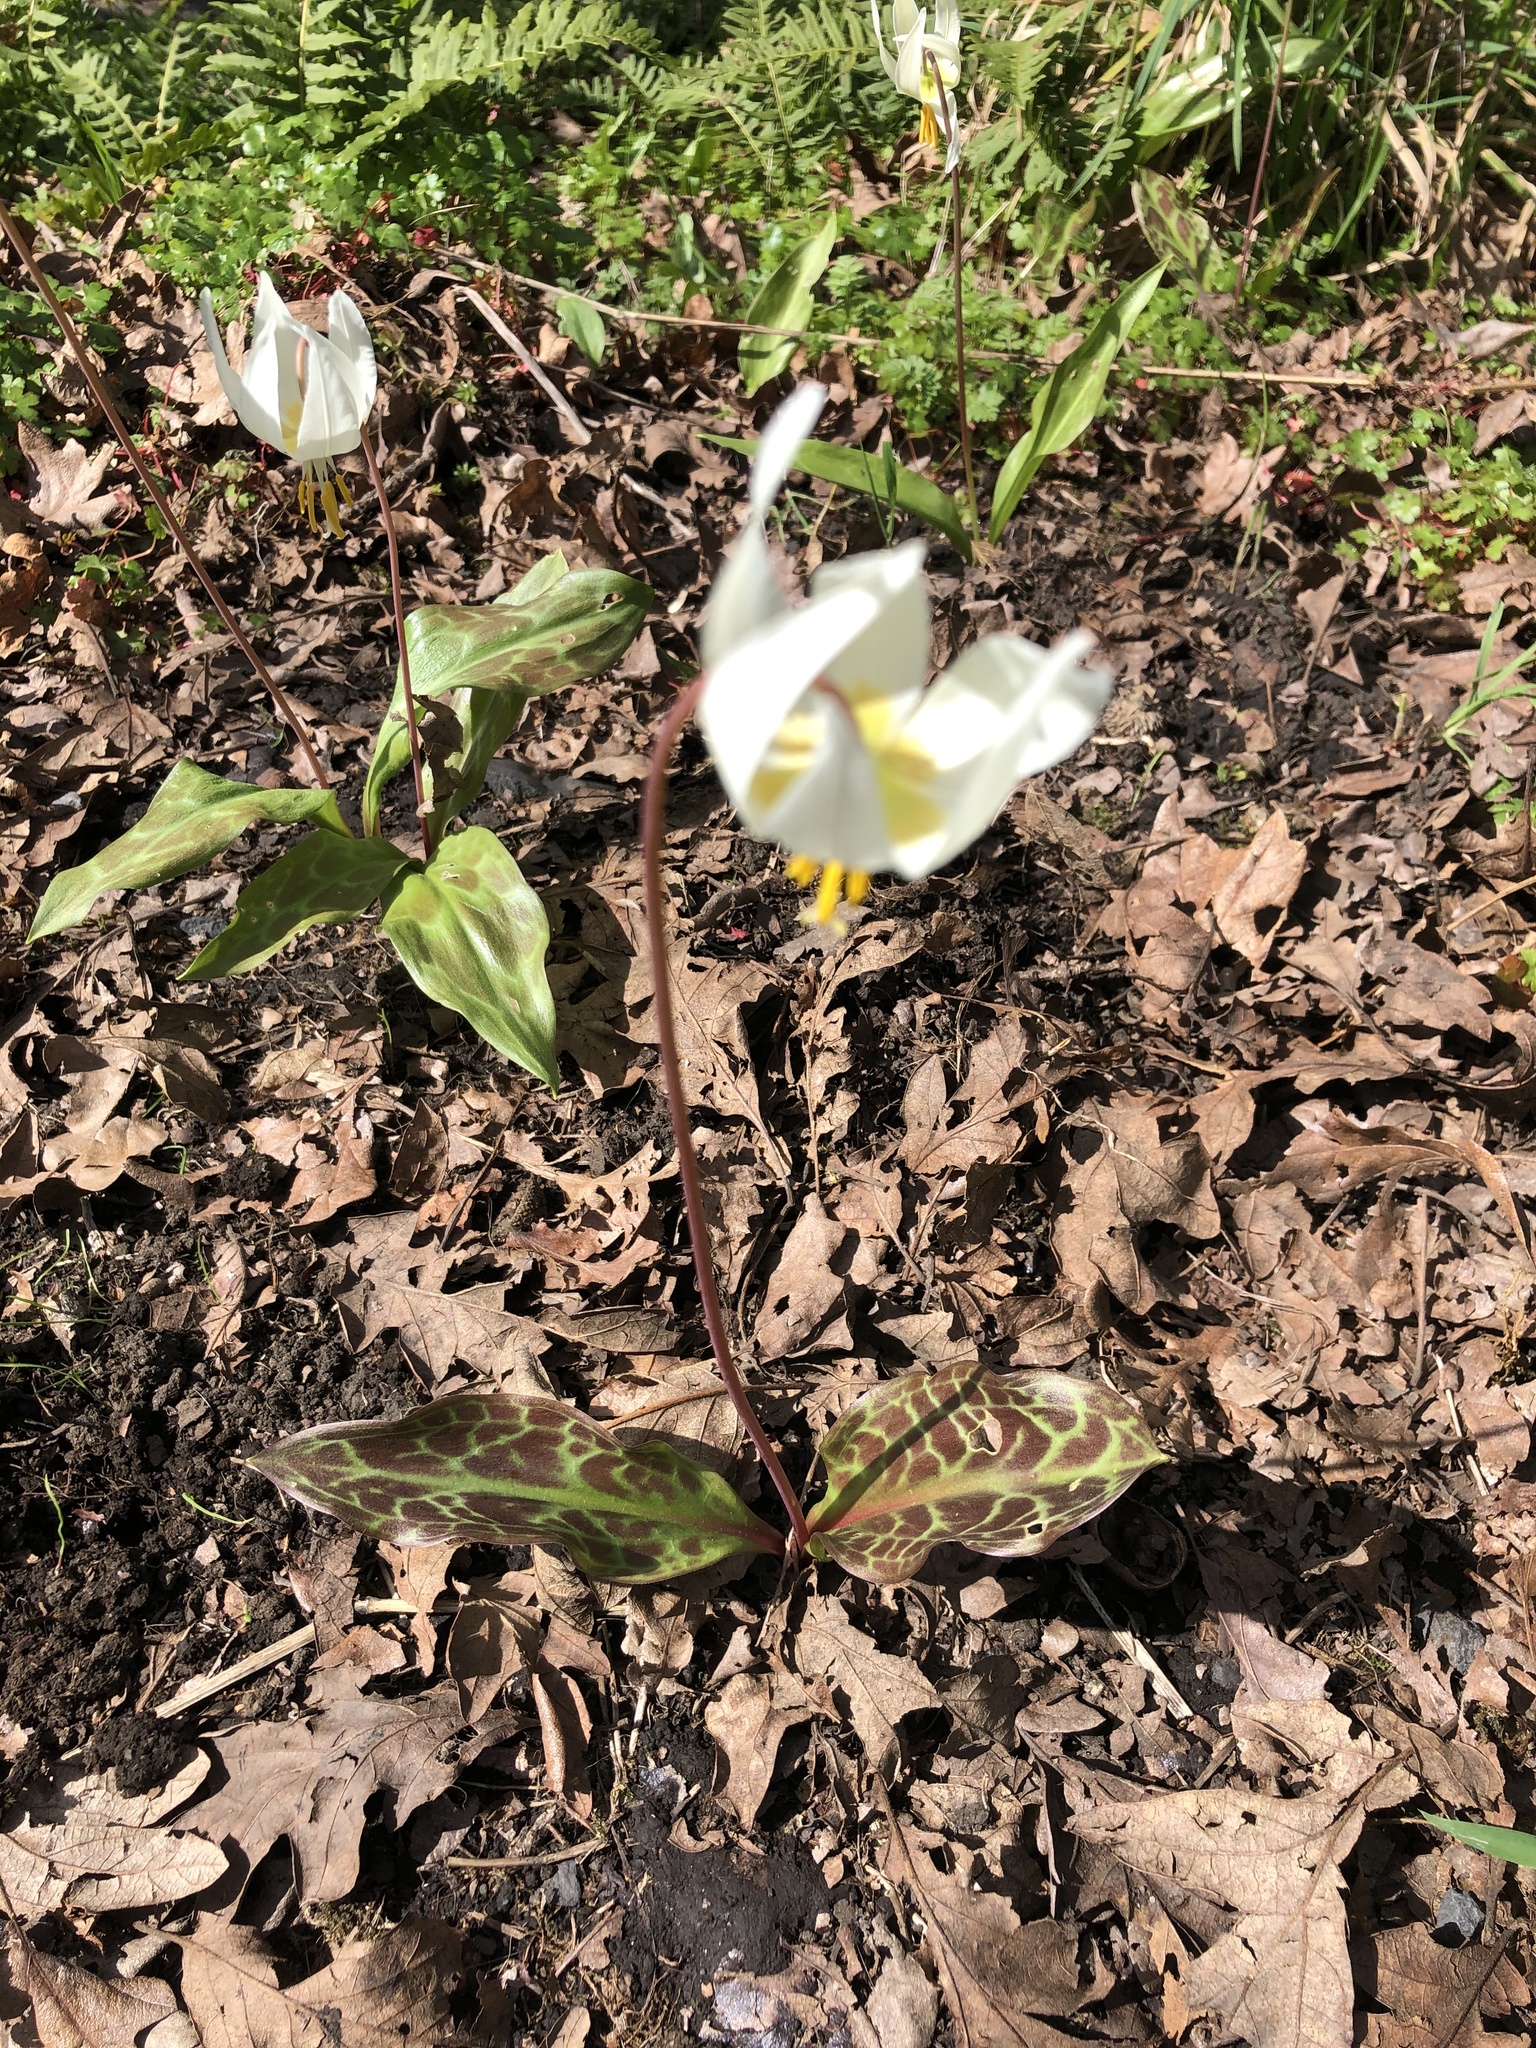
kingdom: Plantae
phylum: Tracheophyta
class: Liliopsida
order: Liliales
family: Liliaceae
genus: Erythronium
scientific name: Erythronium oregonum
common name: Giant adder's-tongue
